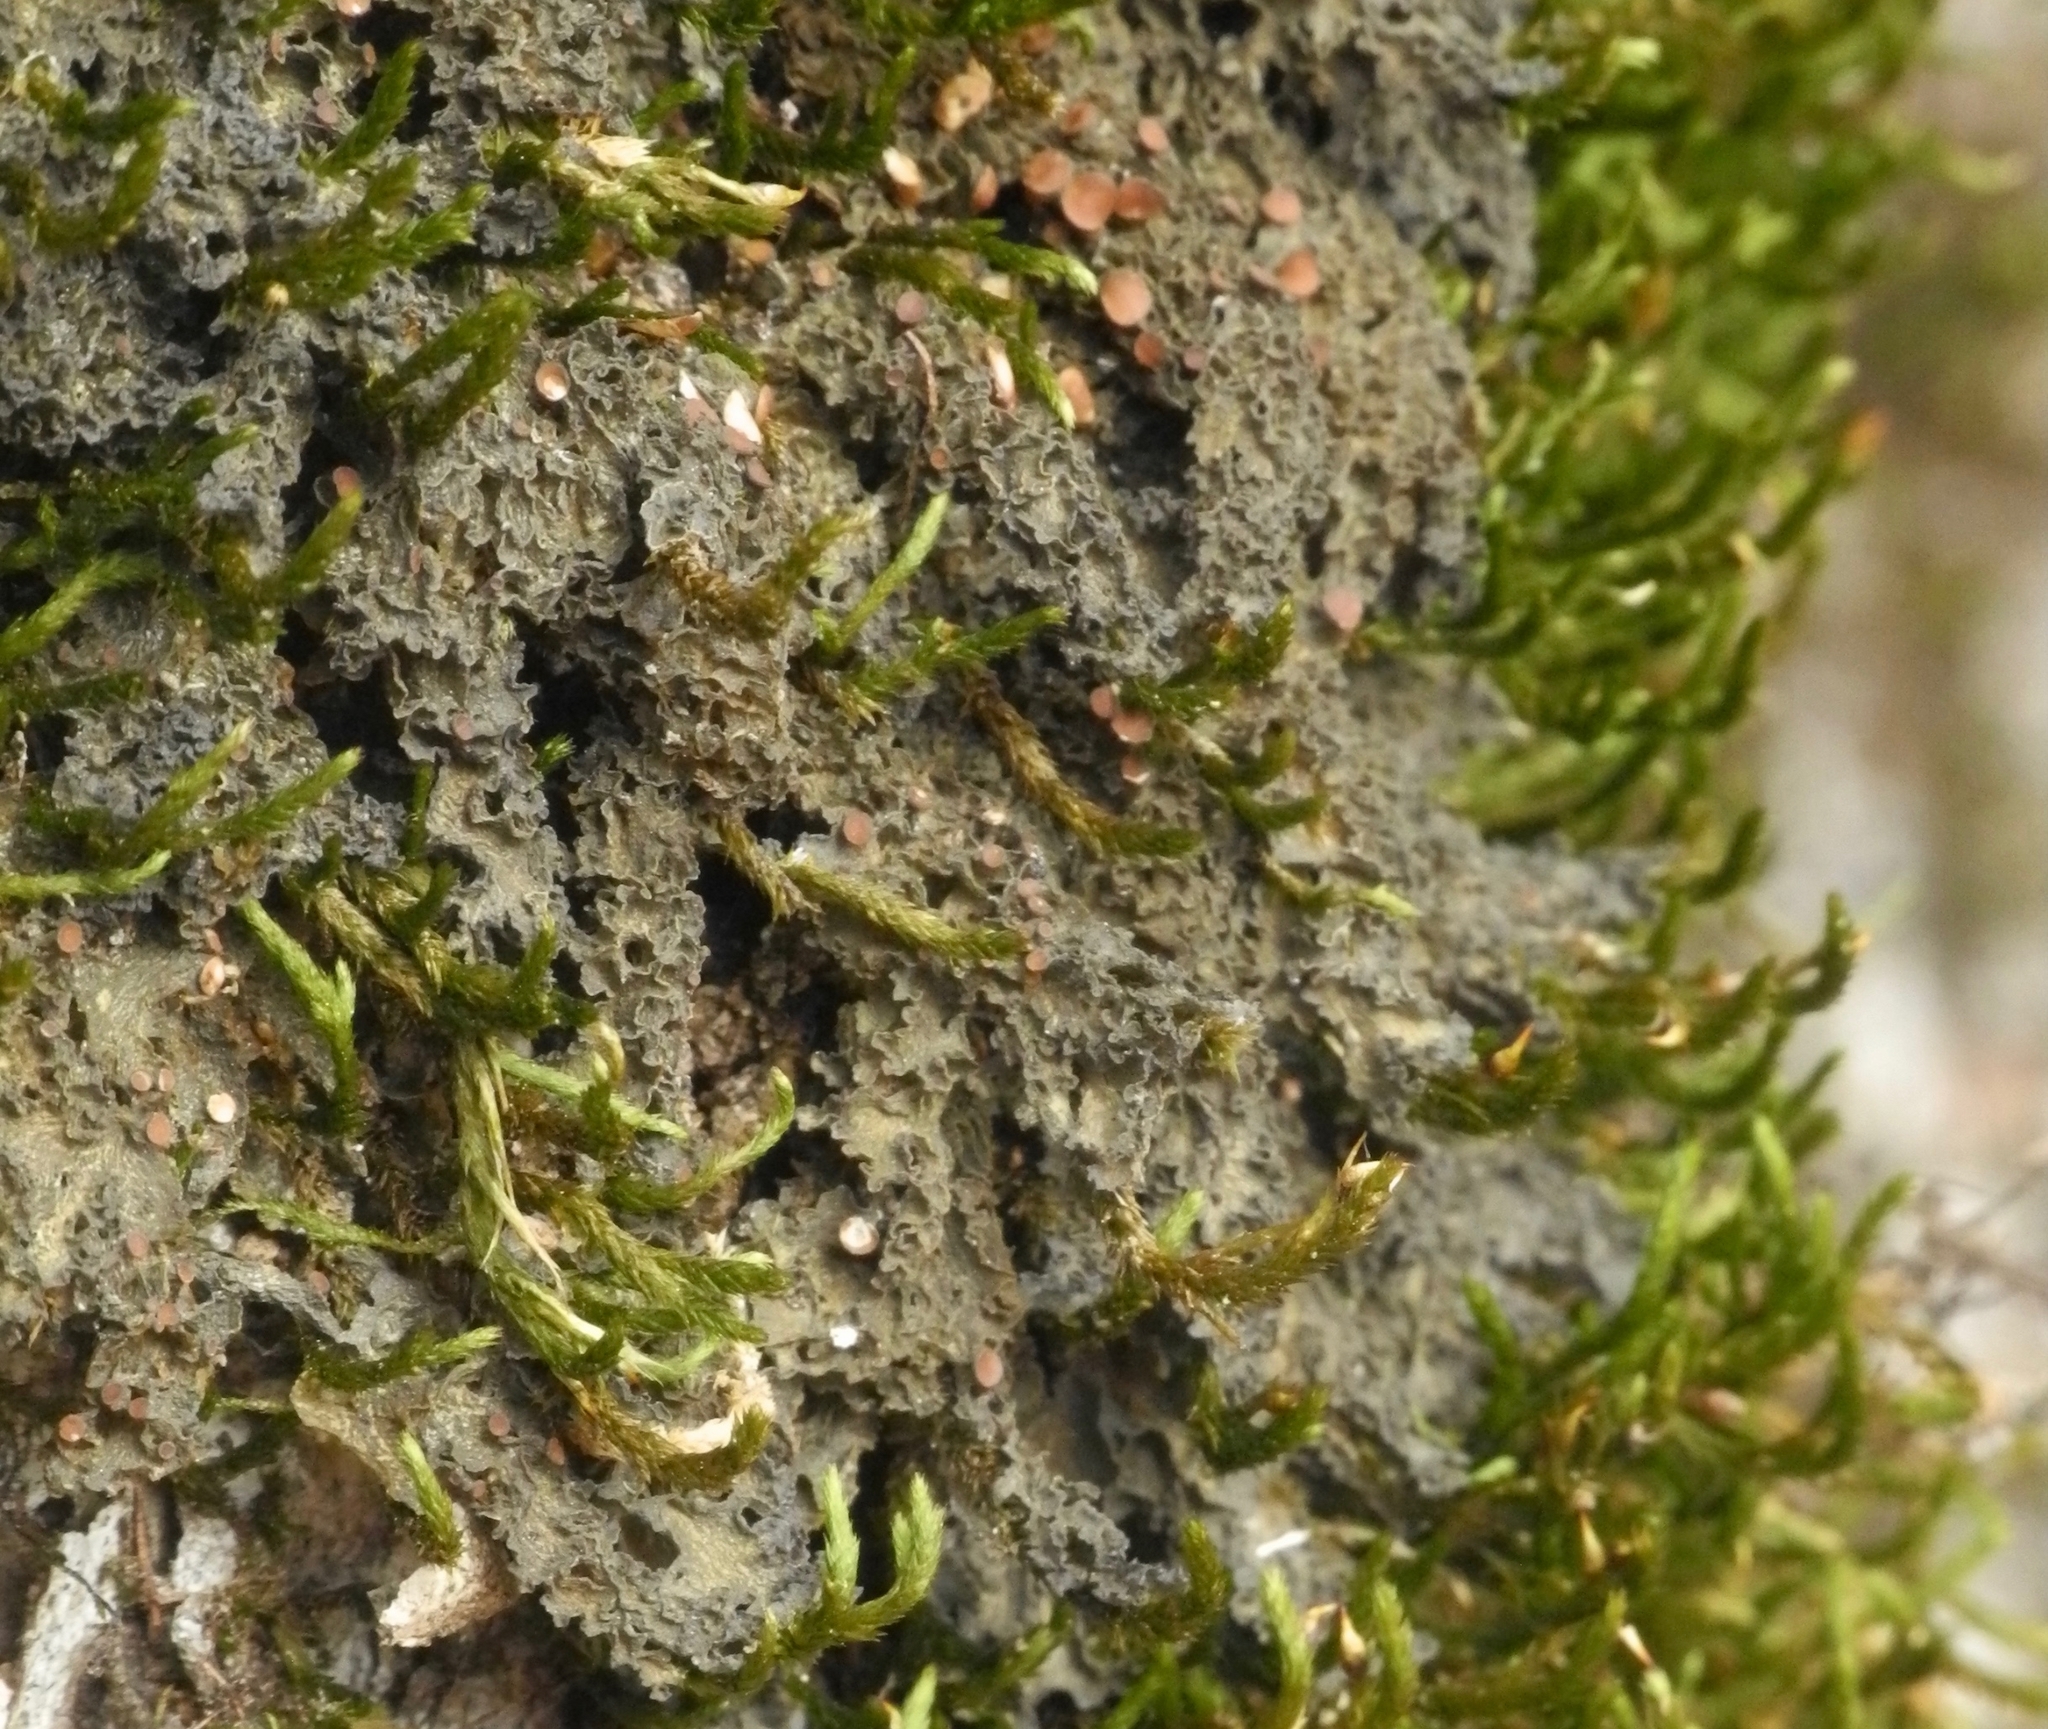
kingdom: Fungi
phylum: Ascomycota
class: Lecanoromycetes
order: Peltigerales
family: Collemataceae
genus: Leptogium
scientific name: Leptogium chloromelum
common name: Ruffled jellyskin
